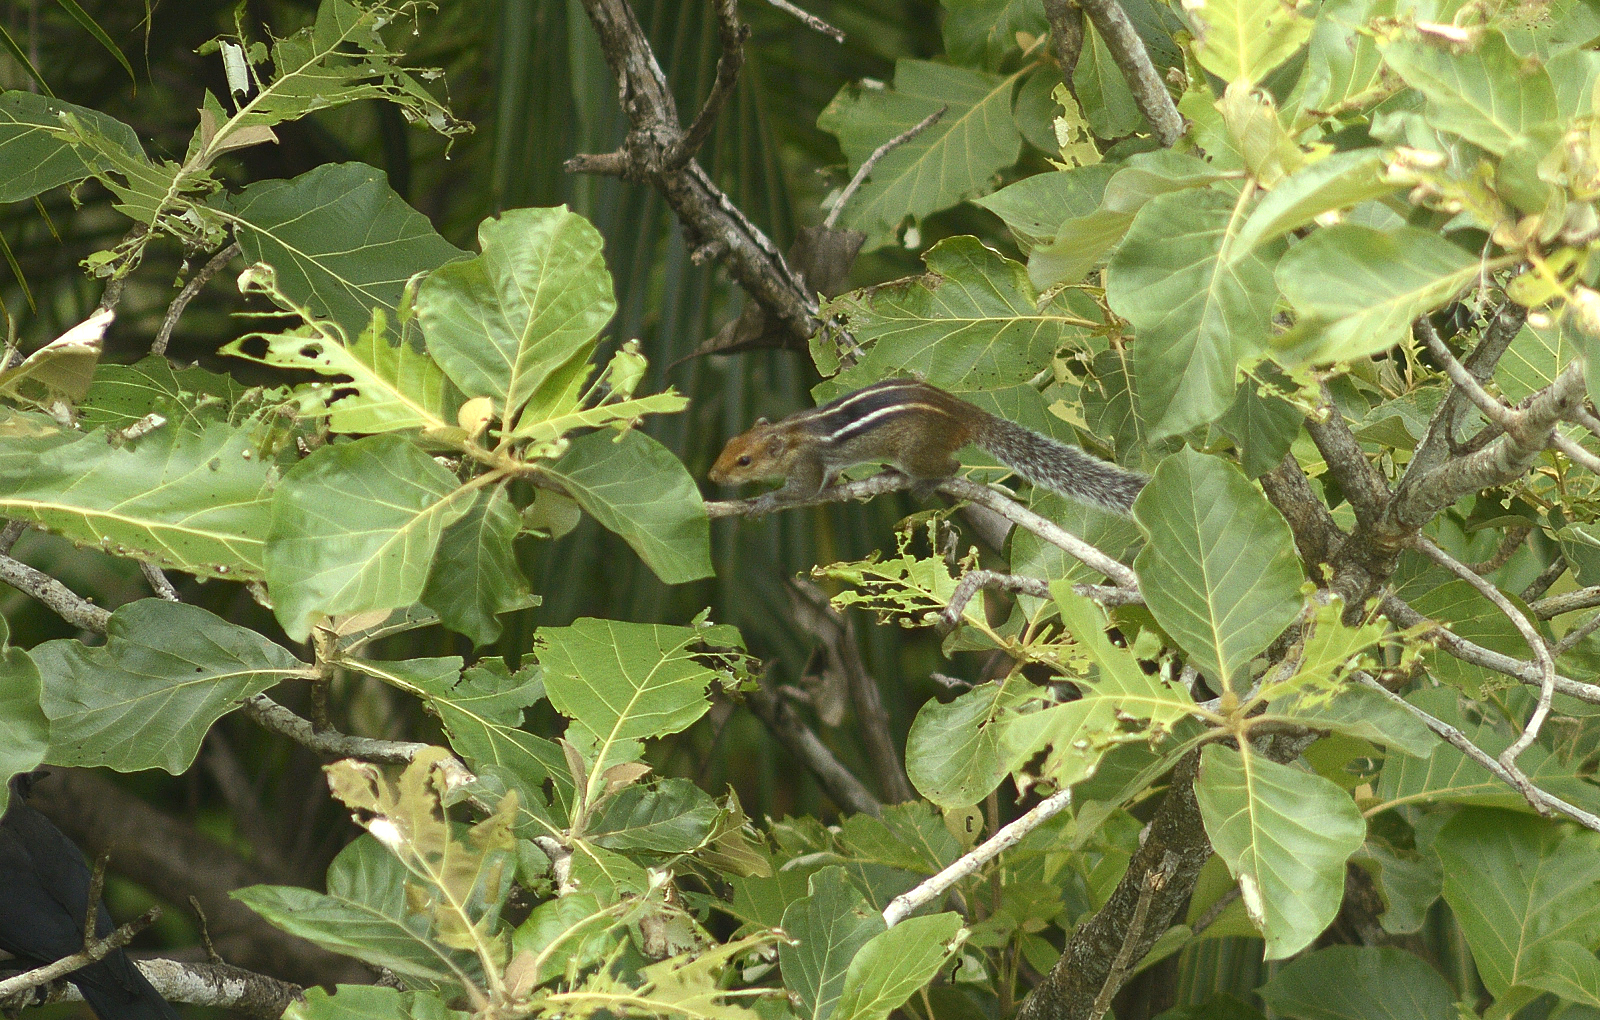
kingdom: Animalia
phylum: Chordata
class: Mammalia
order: Rodentia
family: Sciuridae
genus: Funambulus
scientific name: Funambulus tristriatus
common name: Jungle palm squirrel
